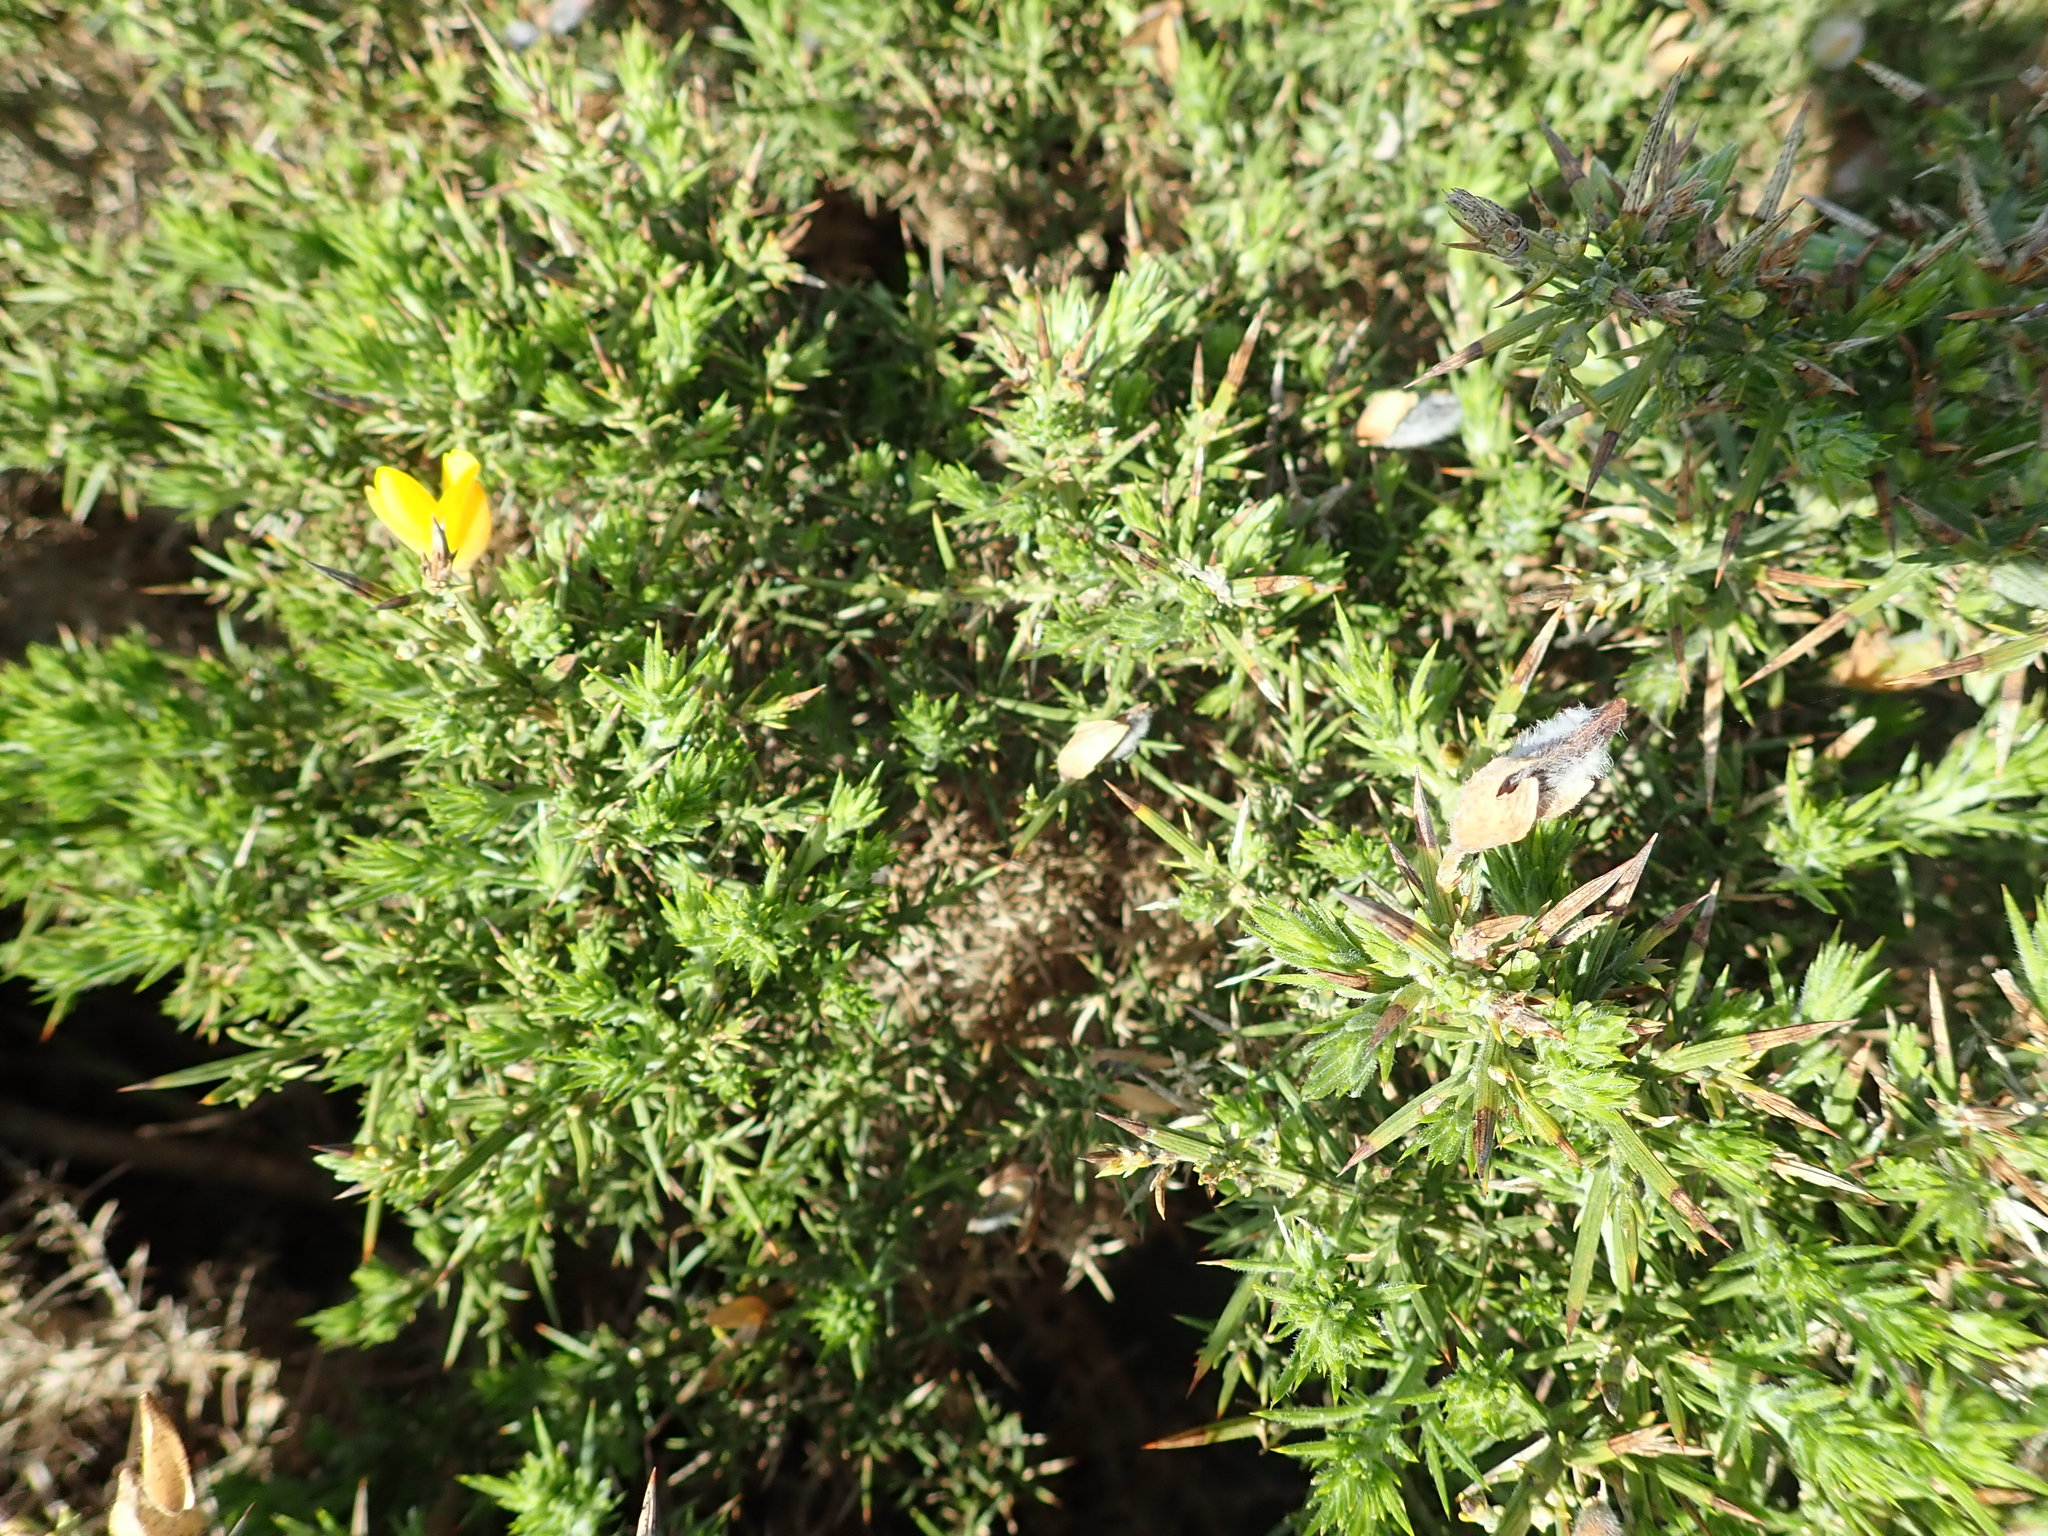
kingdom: Plantae
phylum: Tracheophyta
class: Magnoliopsida
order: Fabales
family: Fabaceae
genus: Ulex
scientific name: Ulex europaeus
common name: Common gorse
